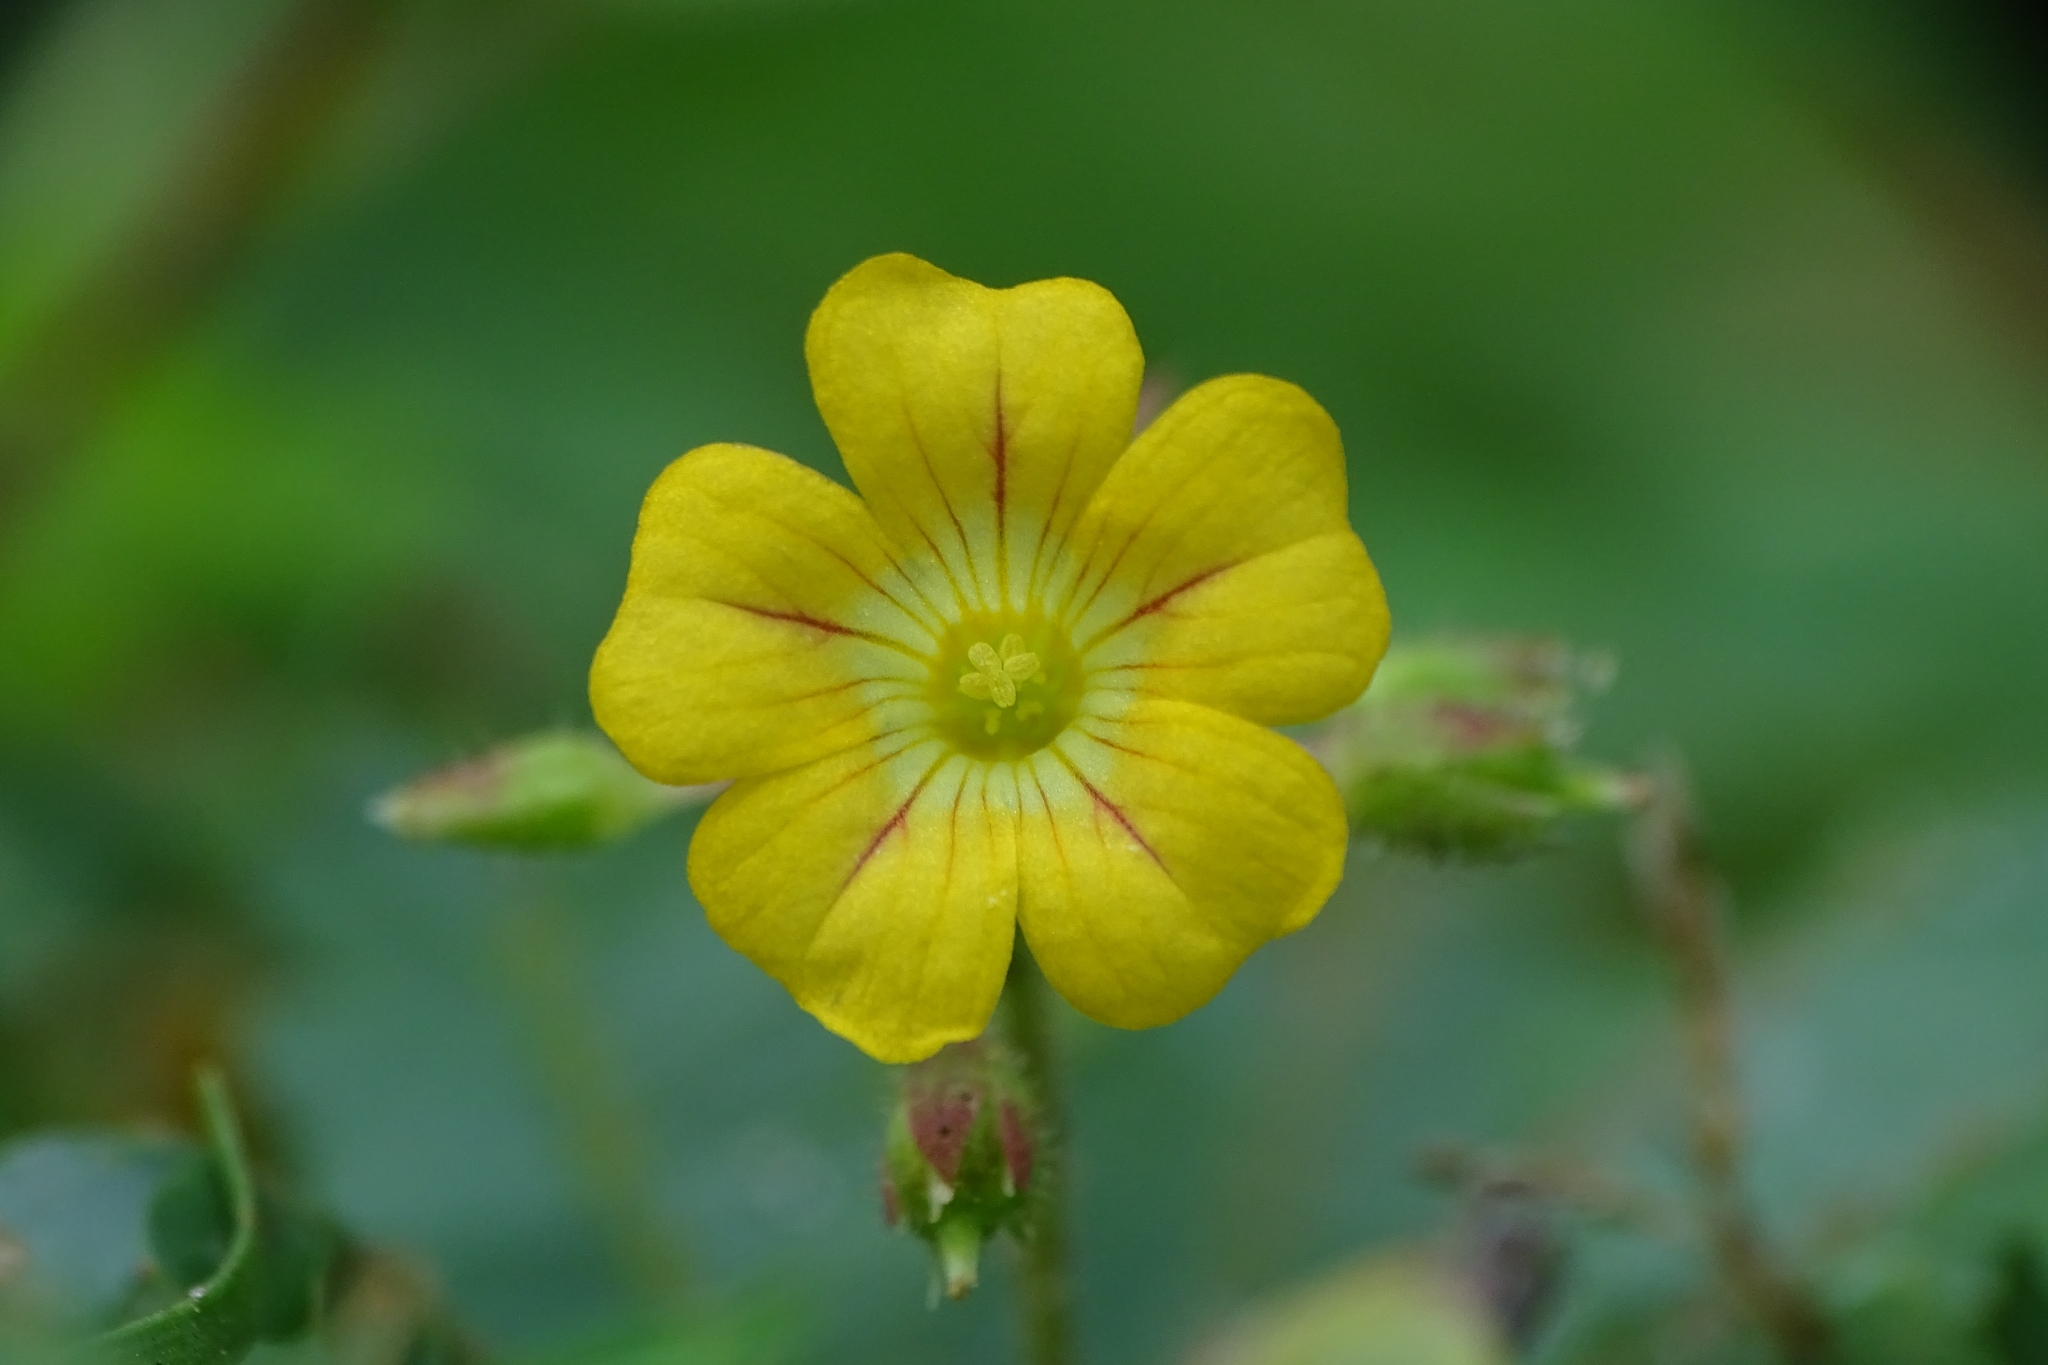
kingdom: Plantae
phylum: Tracheophyta
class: Magnoliopsida
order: Oxalidales
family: Oxalidaceae
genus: Biophytum
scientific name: Biophytum sensitivum
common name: Lifeplant
